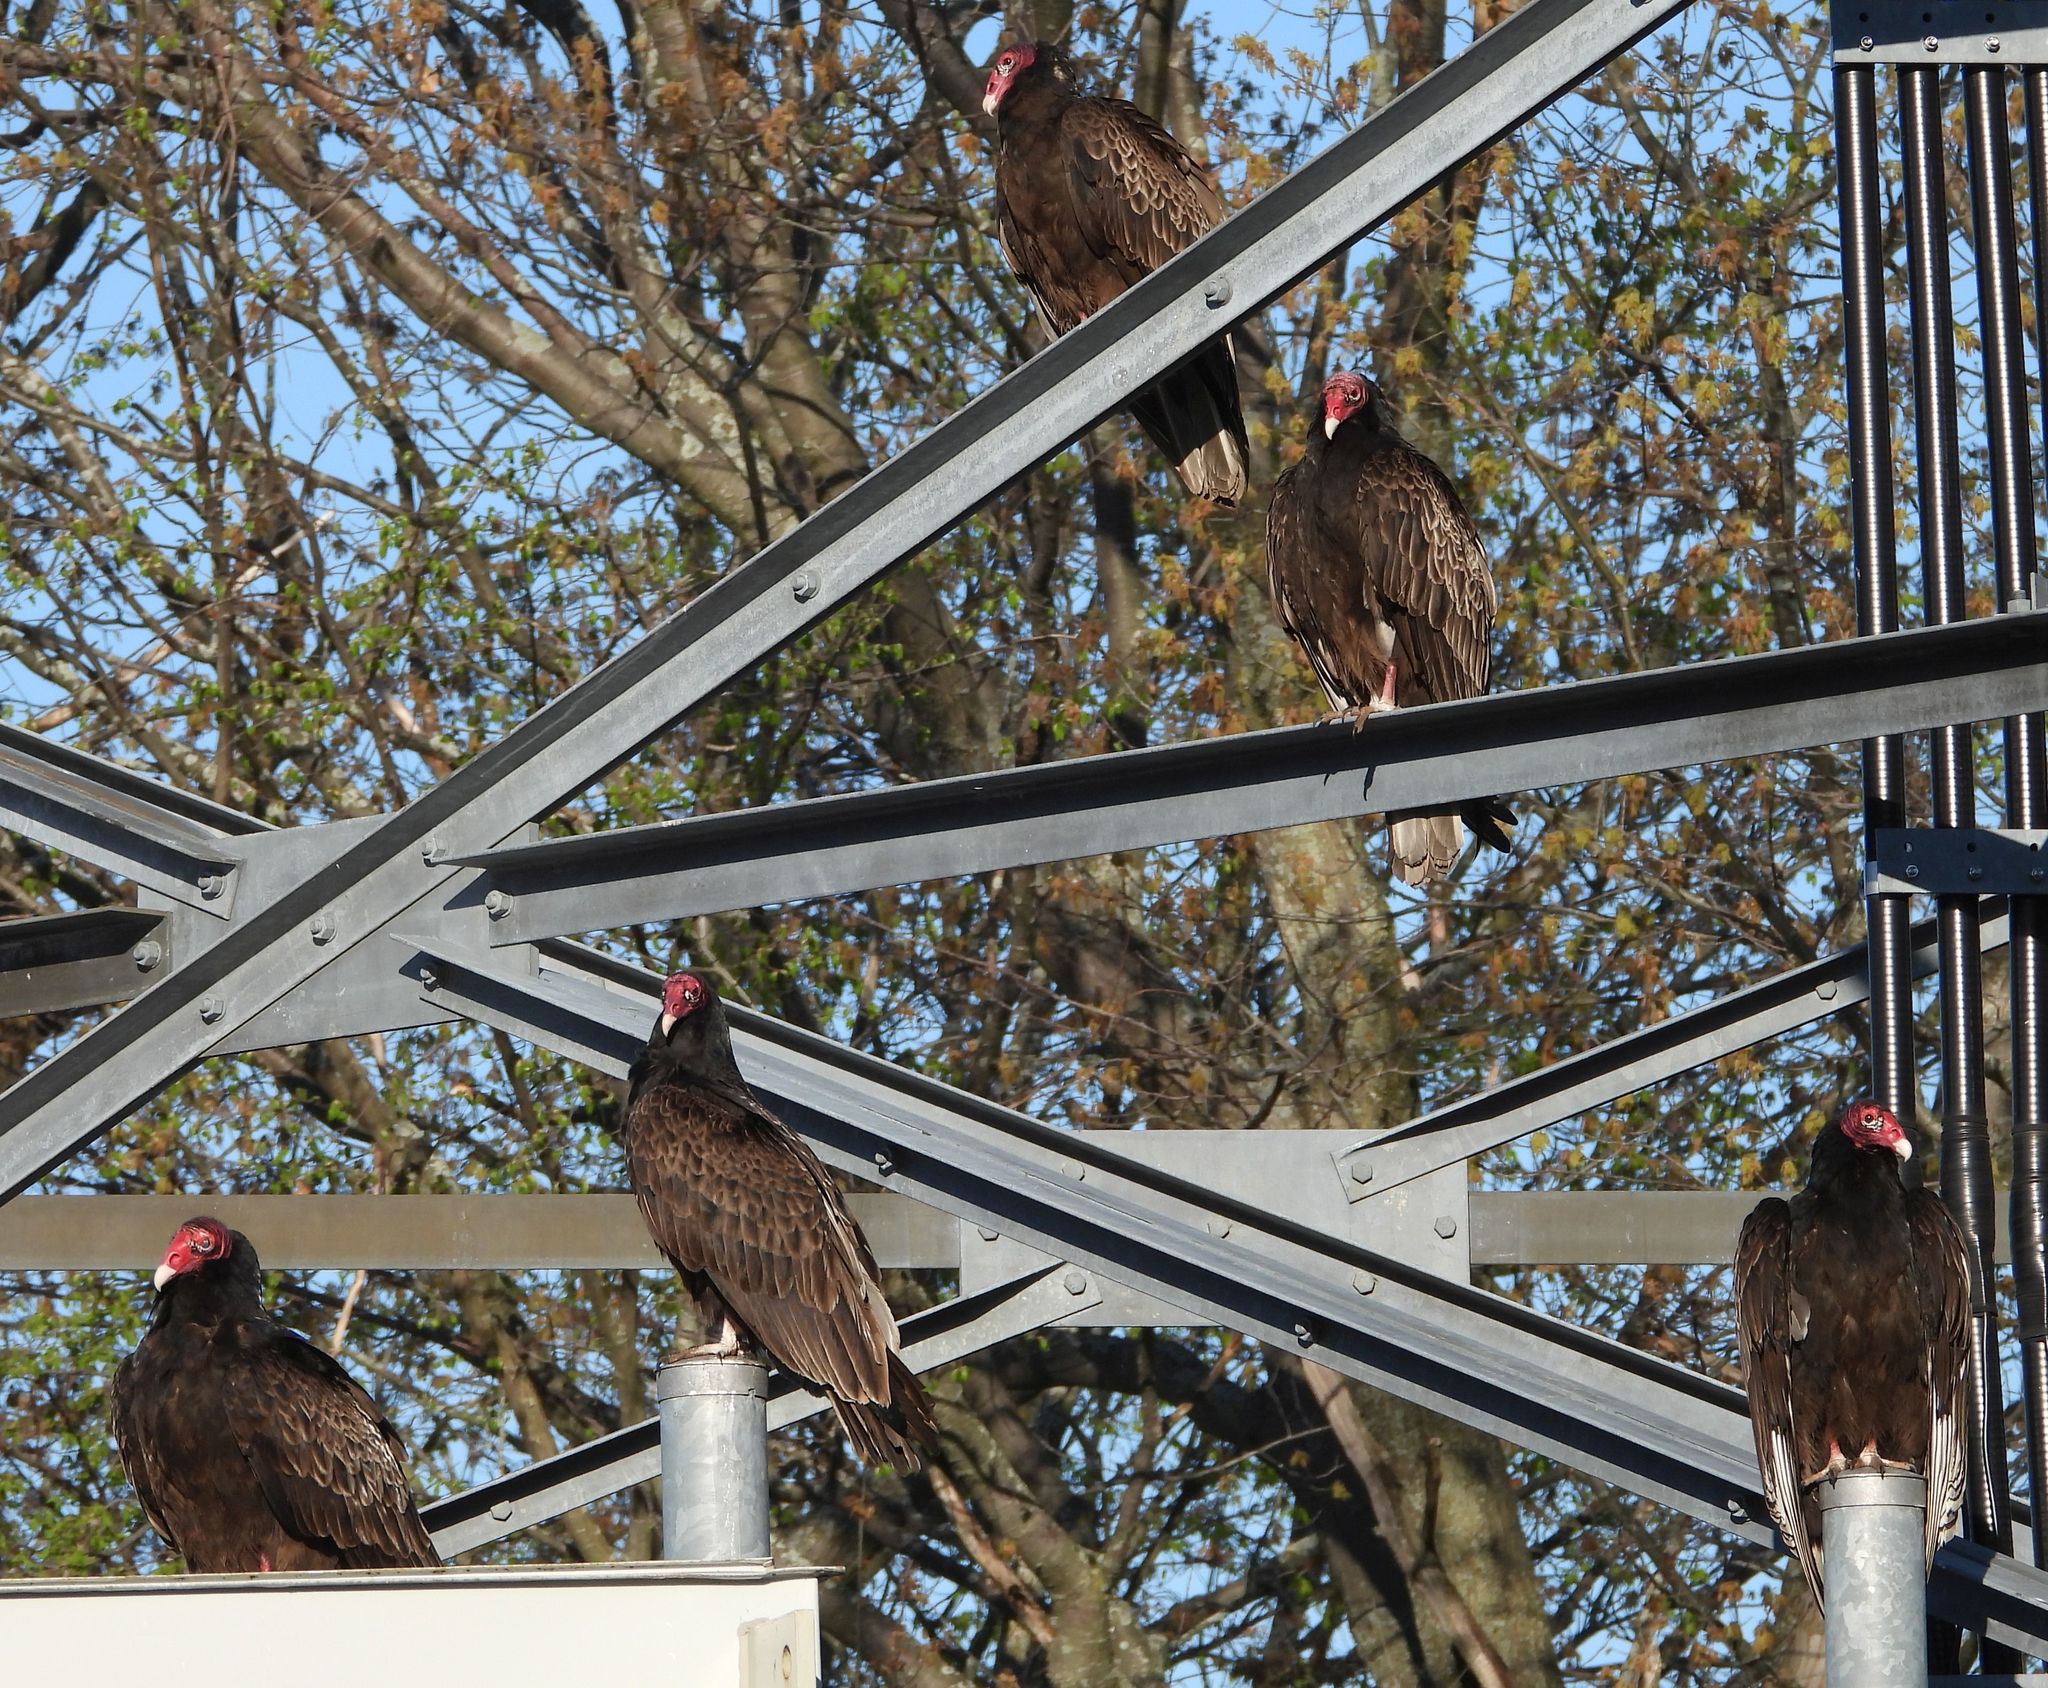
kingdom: Animalia
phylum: Chordata
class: Aves
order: Accipitriformes
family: Cathartidae
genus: Cathartes
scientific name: Cathartes aura
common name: Turkey vulture
